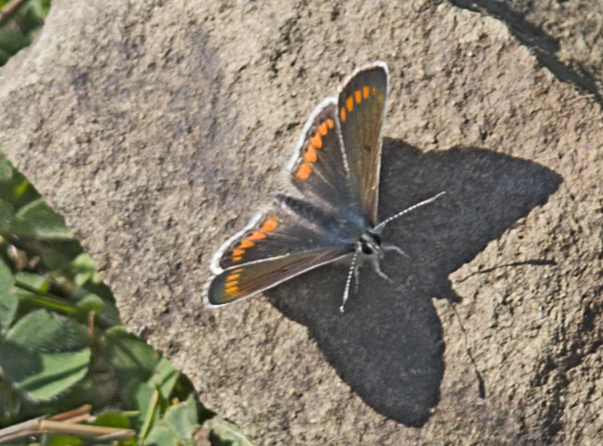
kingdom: Animalia
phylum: Arthropoda
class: Insecta
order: Lepidoptera
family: Lycaenidae
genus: Aricia
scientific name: Aricia agestis
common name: Brown argus
